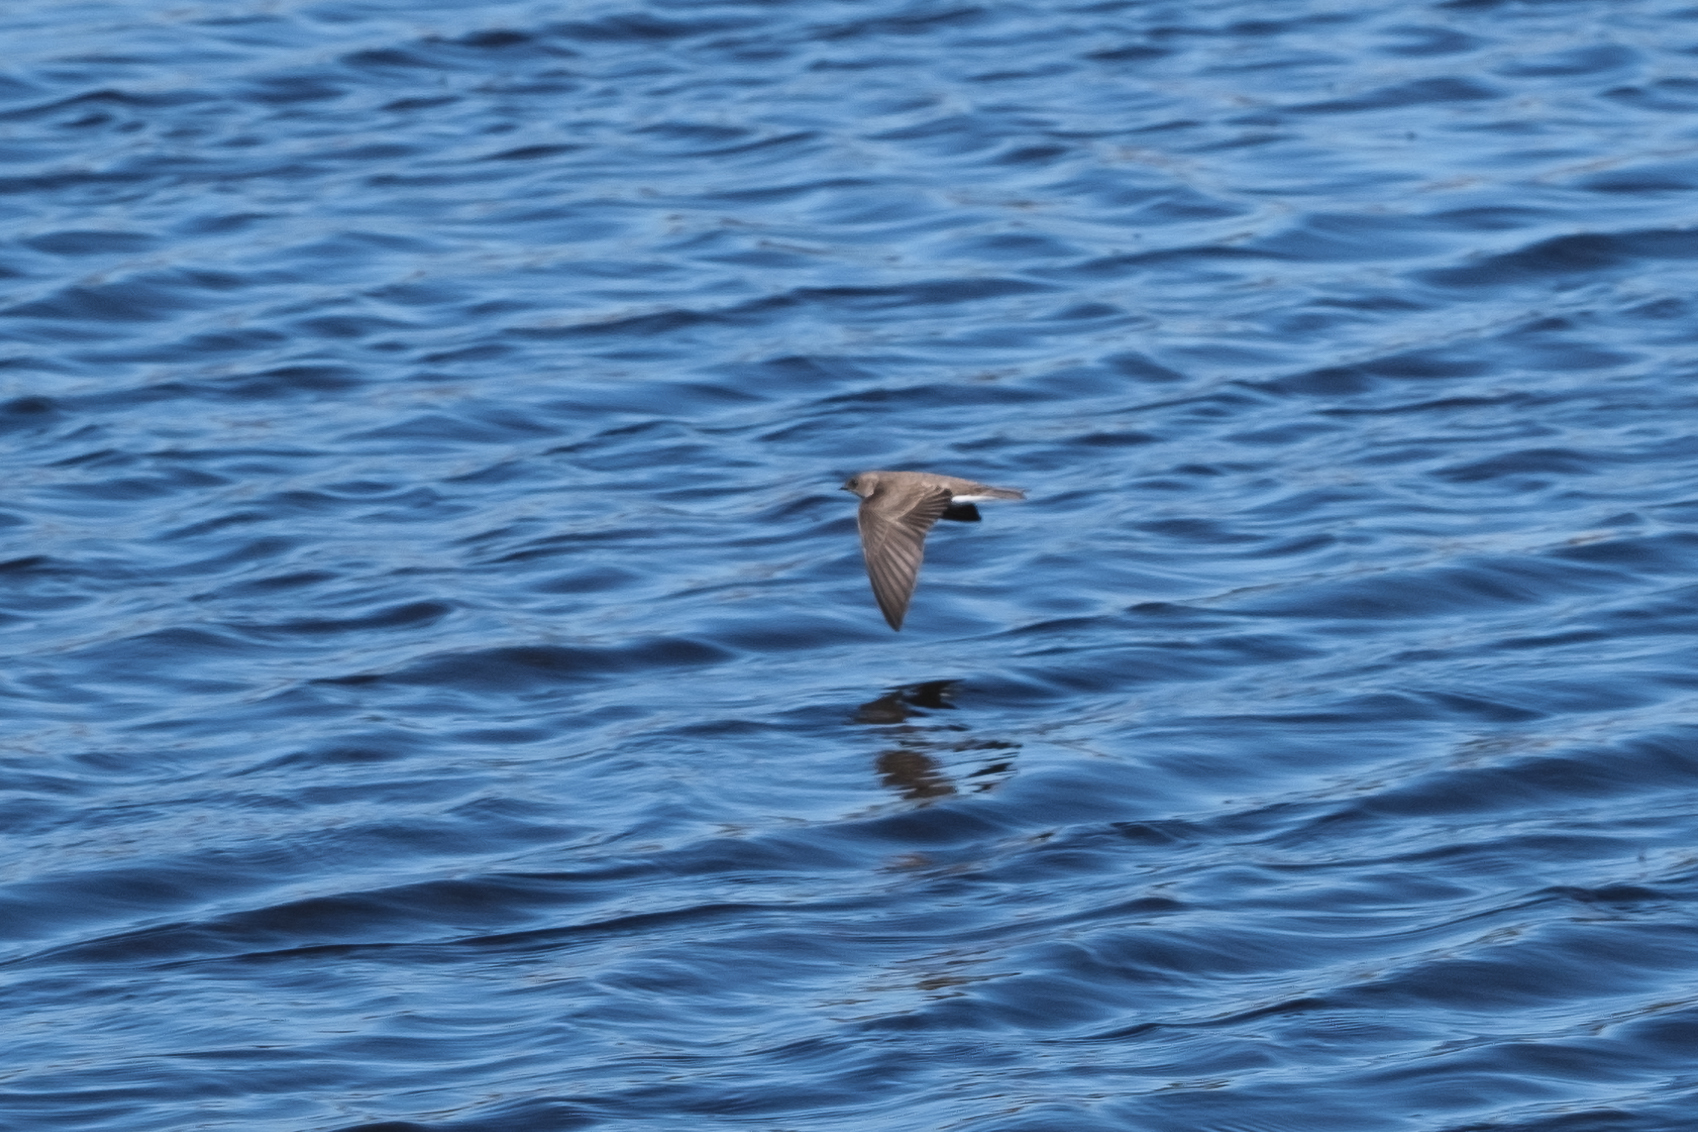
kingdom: Animalia
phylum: Chordata
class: Aves
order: Passeriformes
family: Hirundinidae
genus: Stelgidopteryx
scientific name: Stelgidopteryx serripennis
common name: Northern rough-winged swallow
